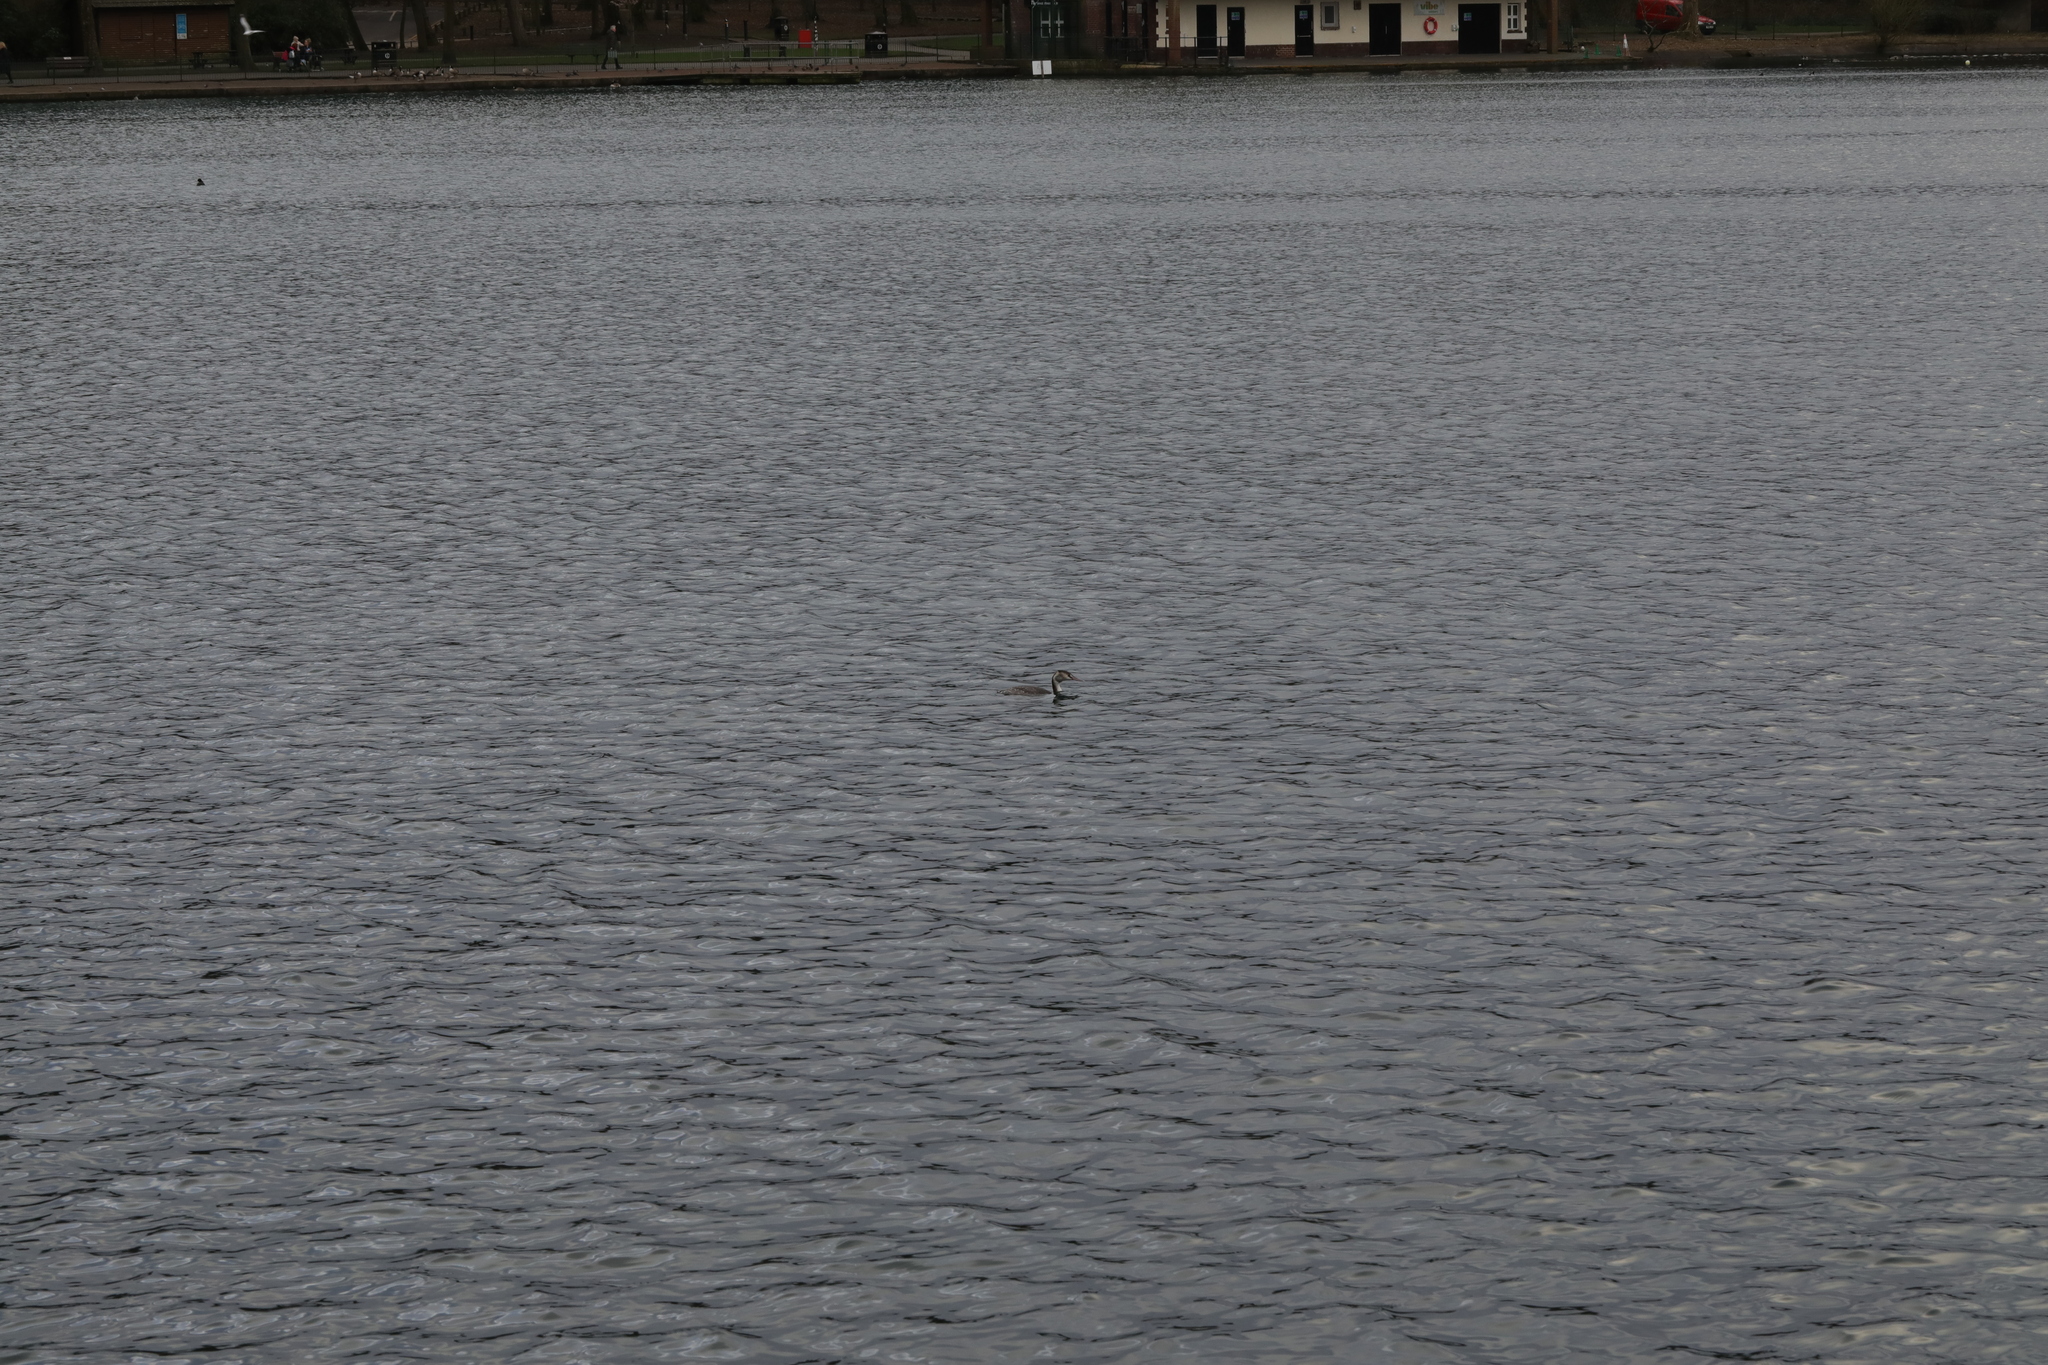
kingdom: Animalia
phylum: Chordata
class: Aves
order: Podicipediformes
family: Podicipedidae
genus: Podiceps
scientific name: Podiceps cristatus
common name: Great crested grebe
